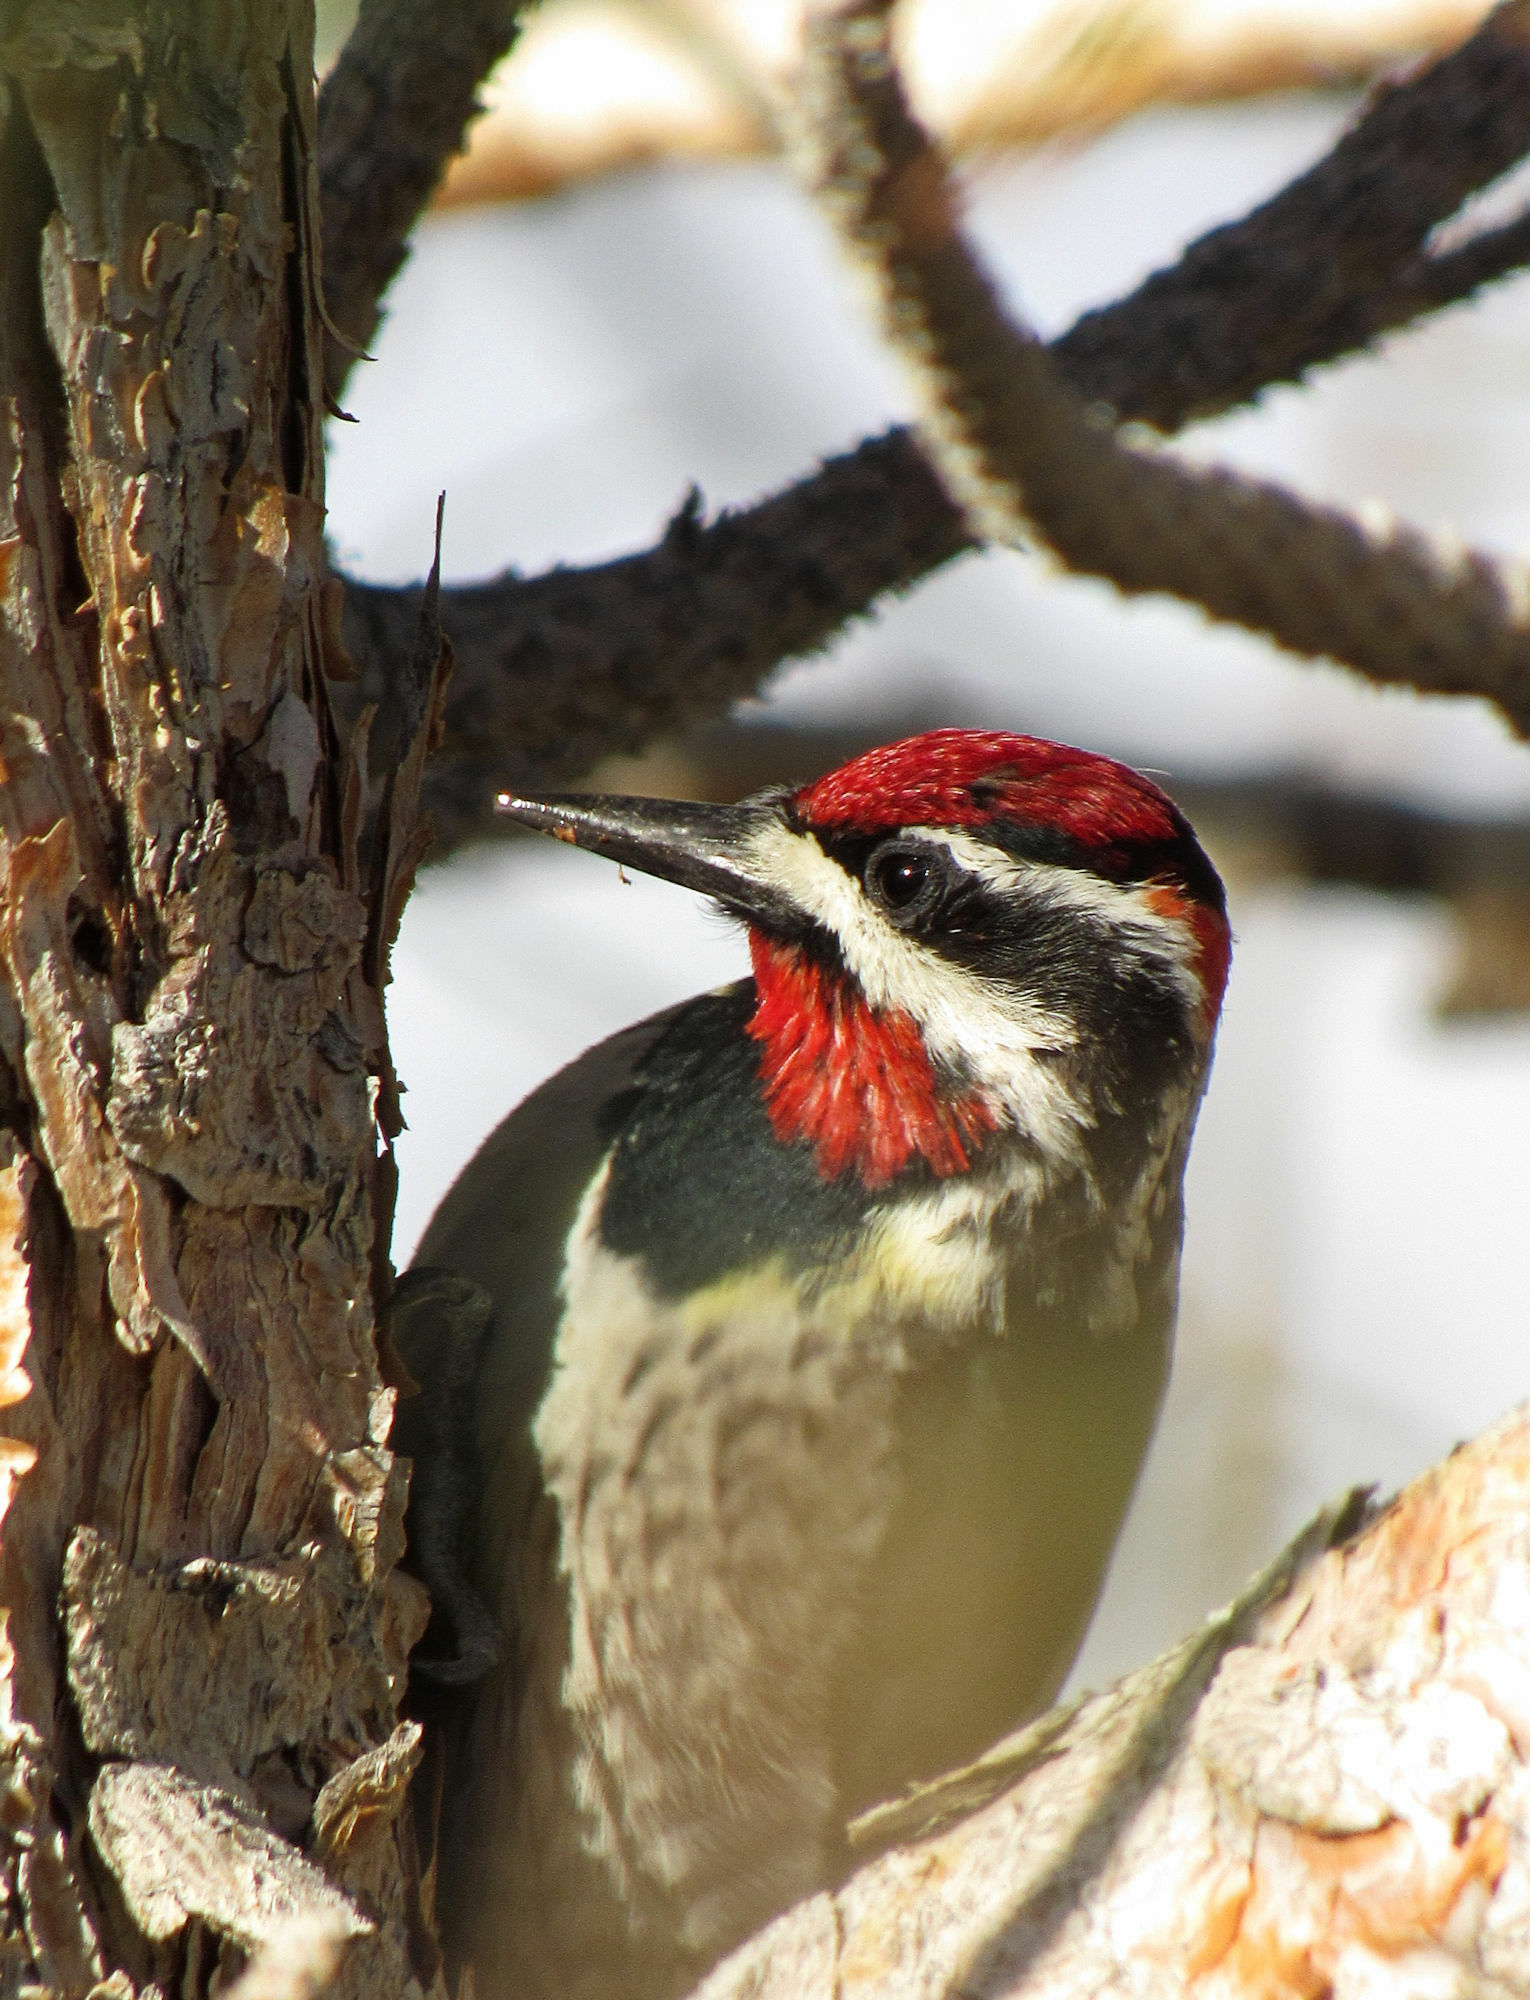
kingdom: Animalia
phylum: Chordata
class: Aves
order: Piciformes
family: Picidae
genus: Sphyrapicus
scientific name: Sphyrapicus nuchalis
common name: Red-naped sapsucker
